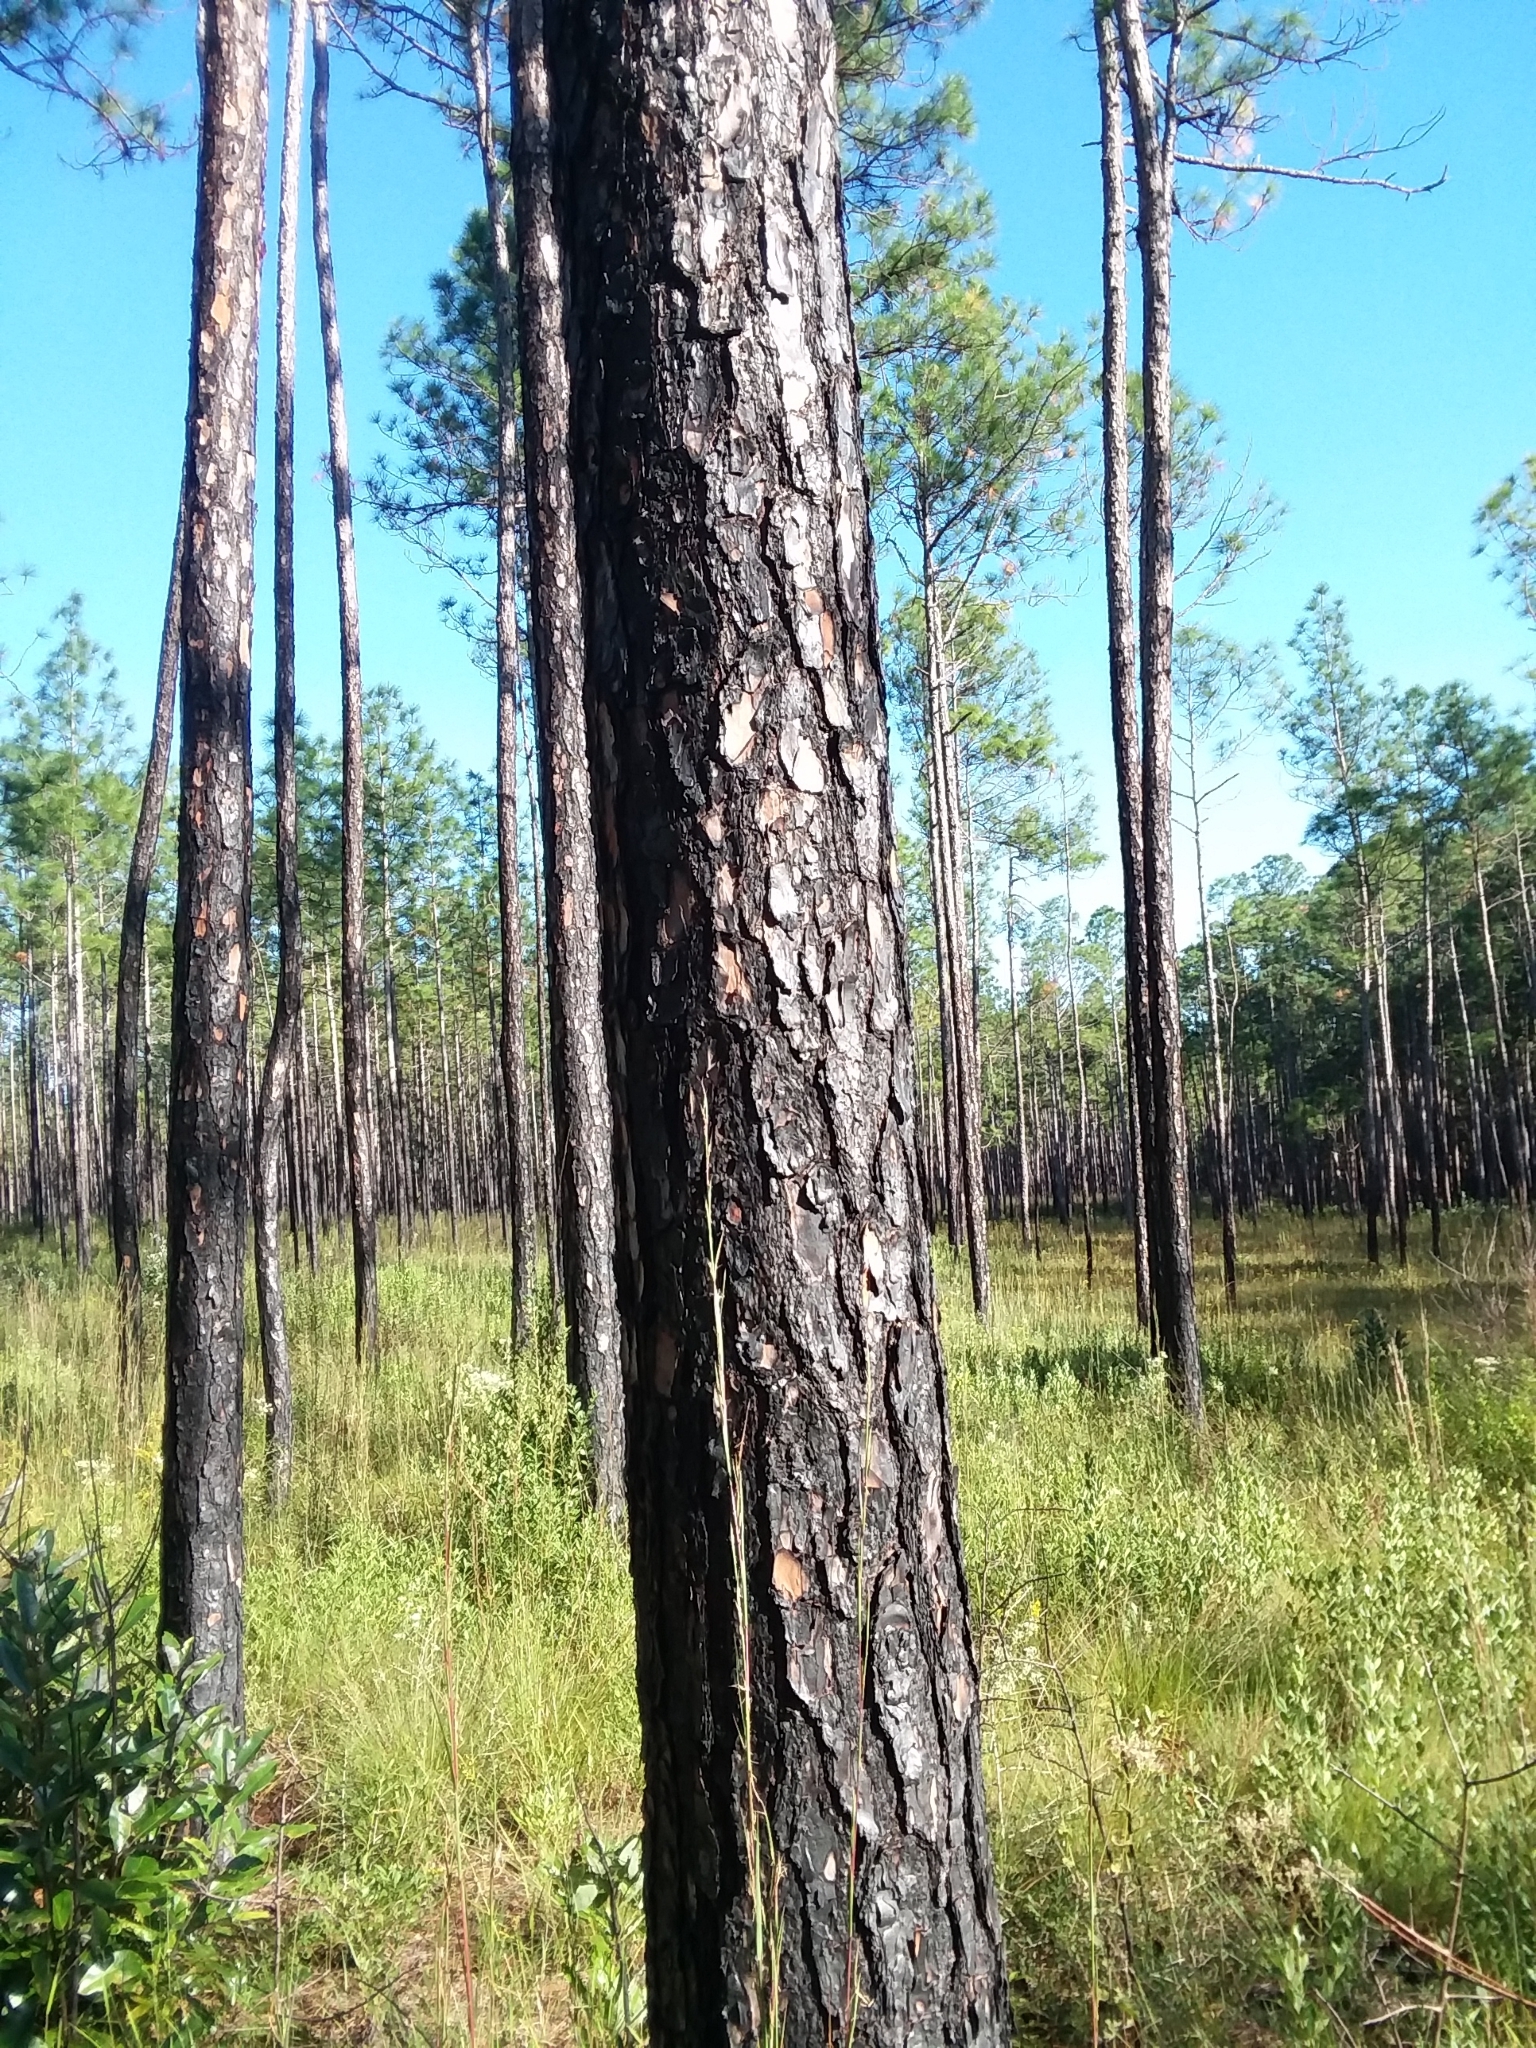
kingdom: Plantae
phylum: Tracheophyta
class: Pinopsida
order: Pinales
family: Pinaceae
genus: Pinus
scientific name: Pinus elliottii
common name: Slash pine
